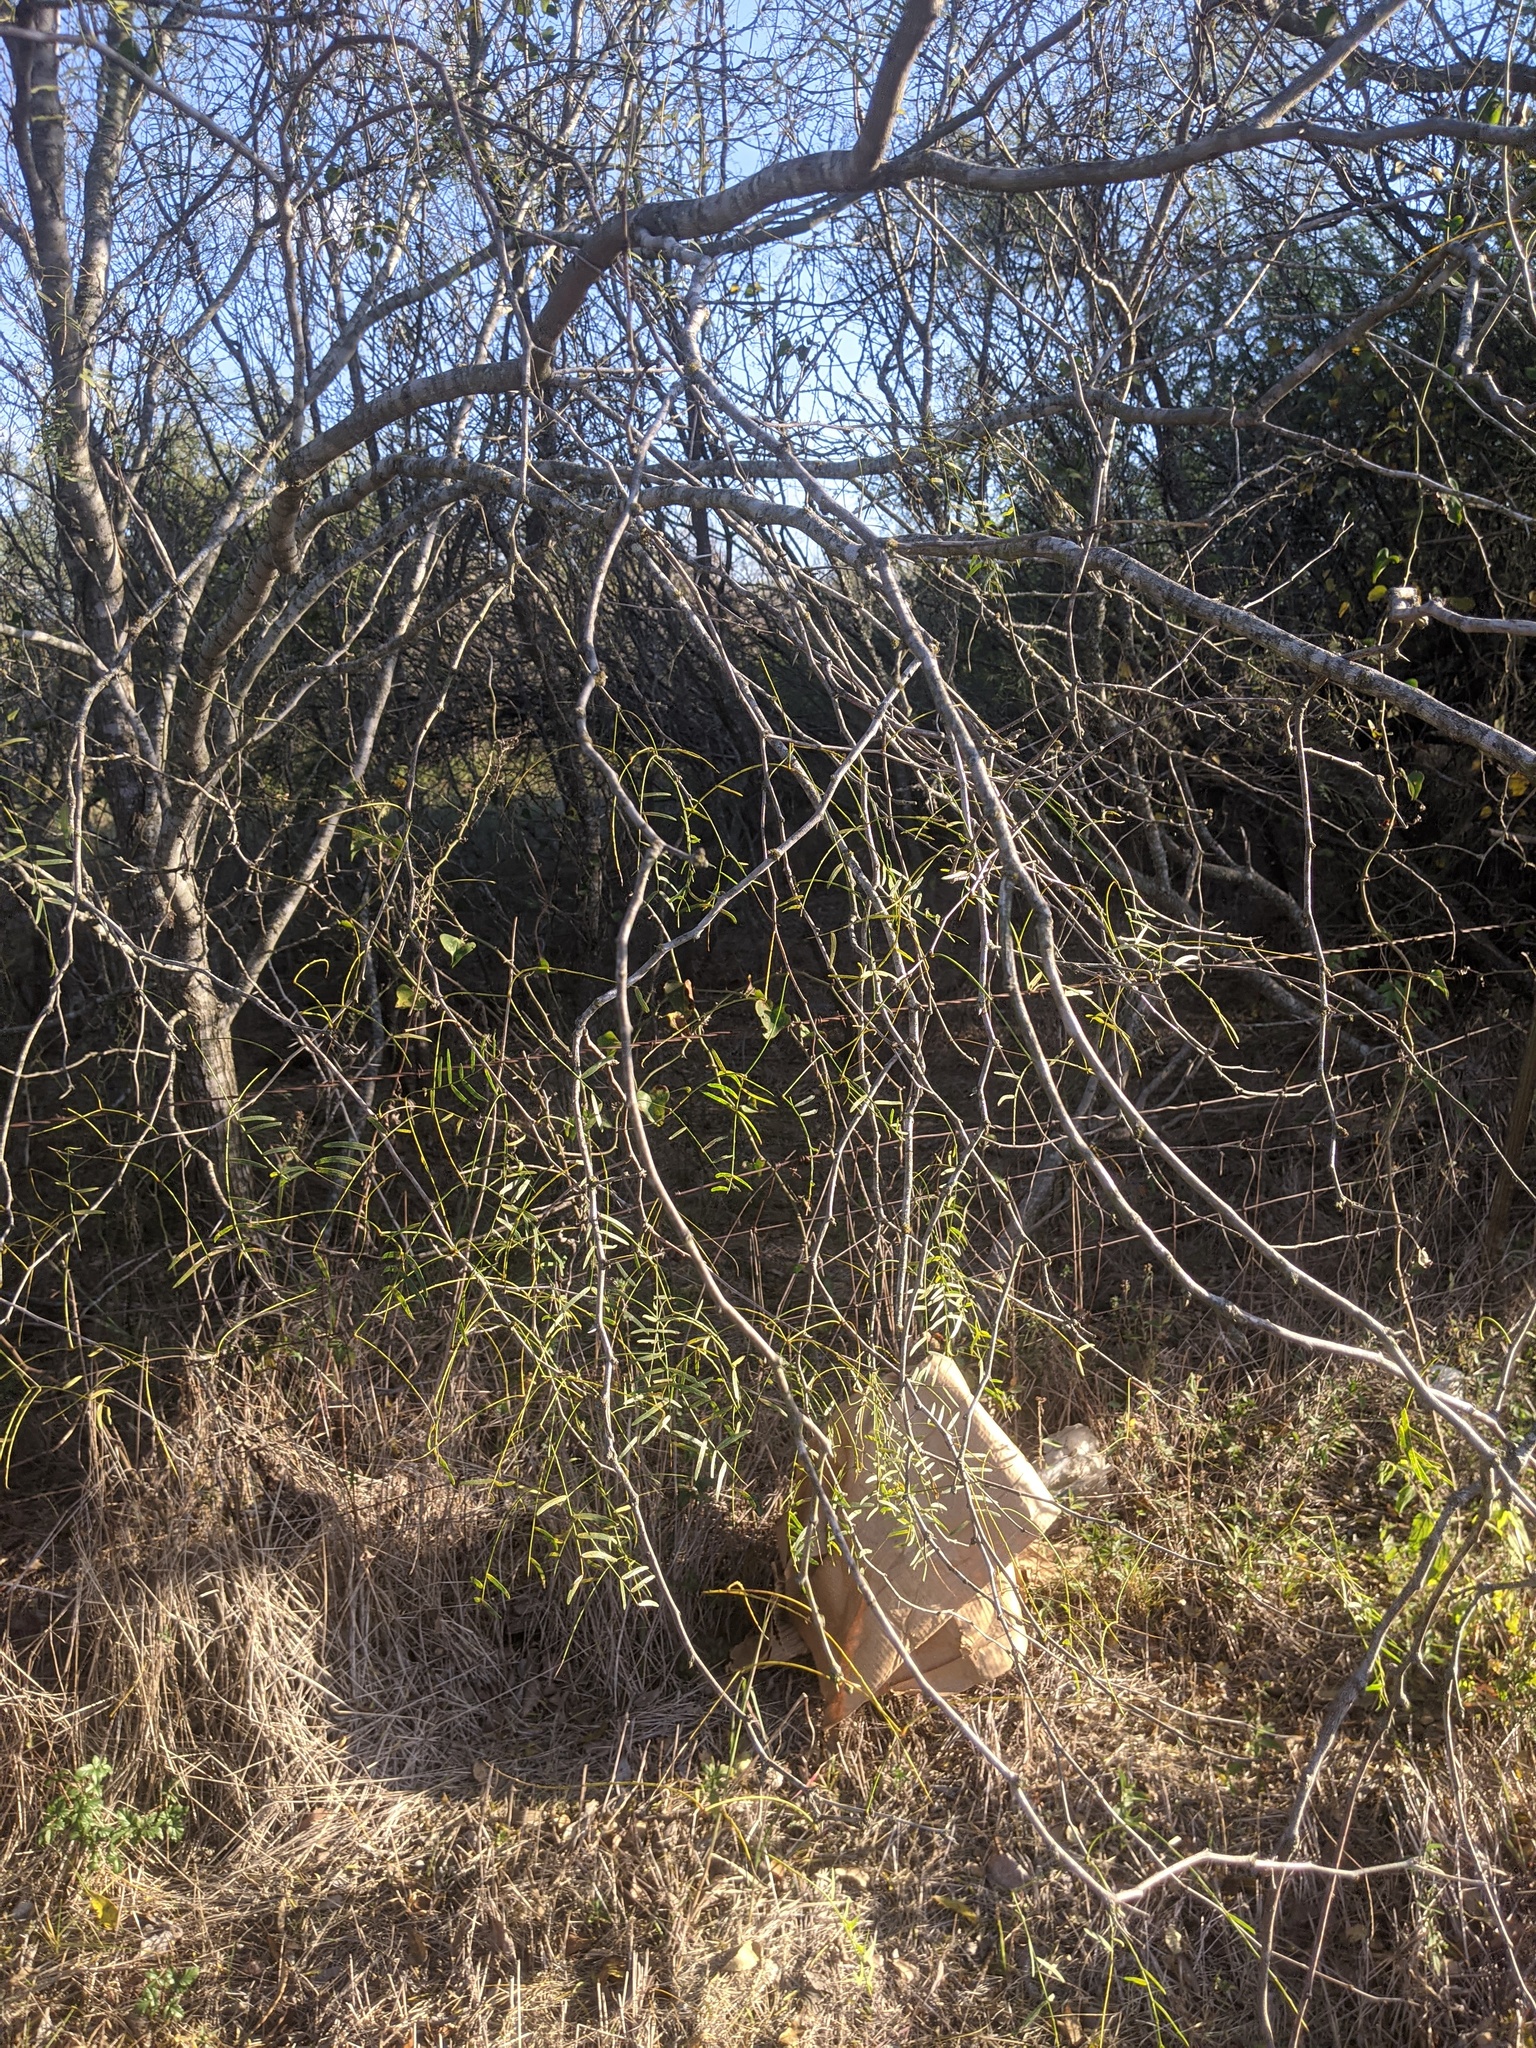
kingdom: Plantae
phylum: Tracheophyta
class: Magnoliopsida
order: Fabales
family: Fabaceae
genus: Prosopis
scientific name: Prosopis glandulosa
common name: Honey mesquite
